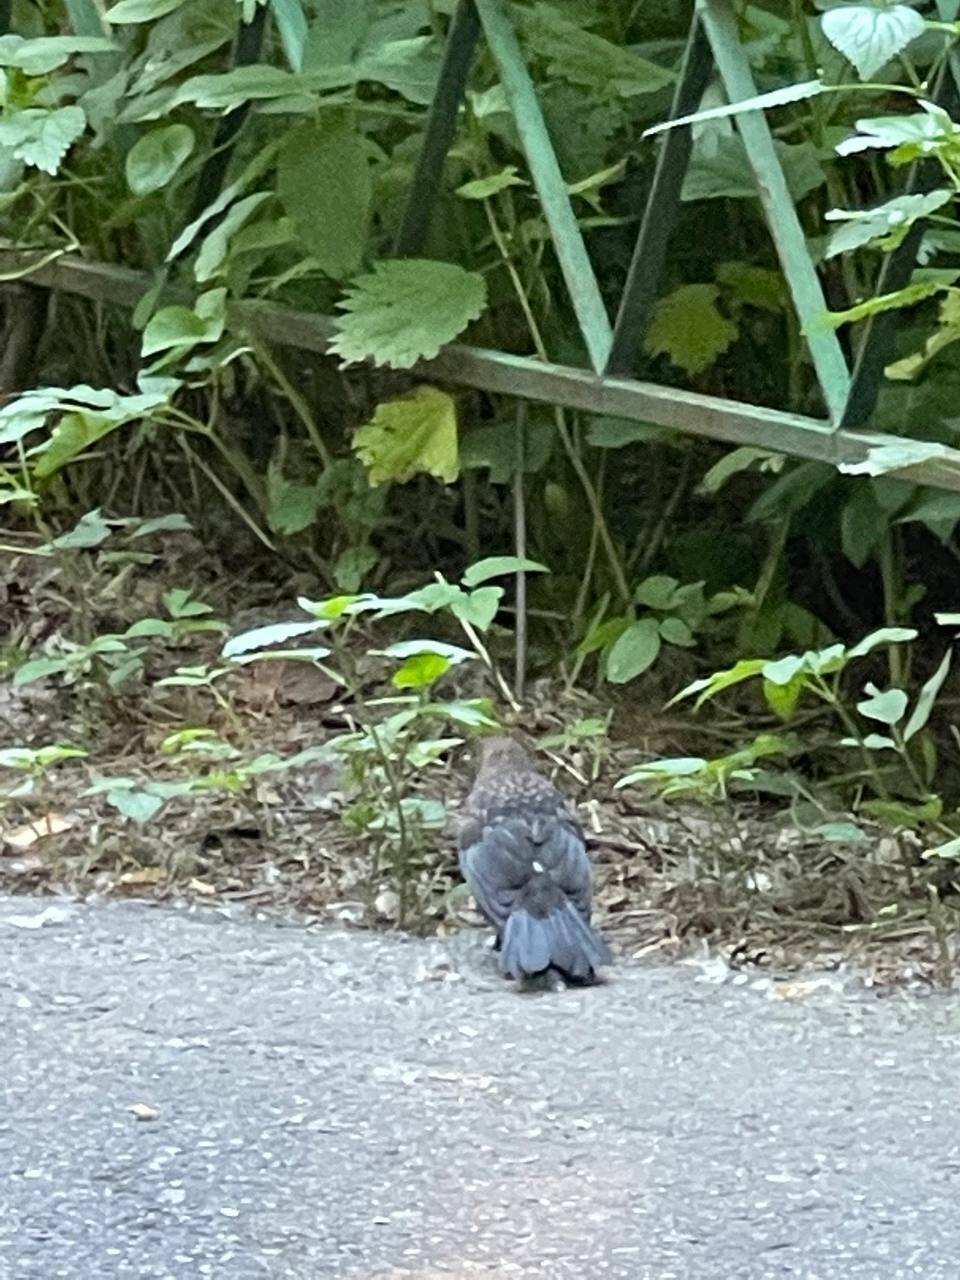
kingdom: Animalia
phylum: Chordata
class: Aves
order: Passeriformes
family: Turdidae
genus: Turdus
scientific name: Turdus merula
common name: Common blackbird
